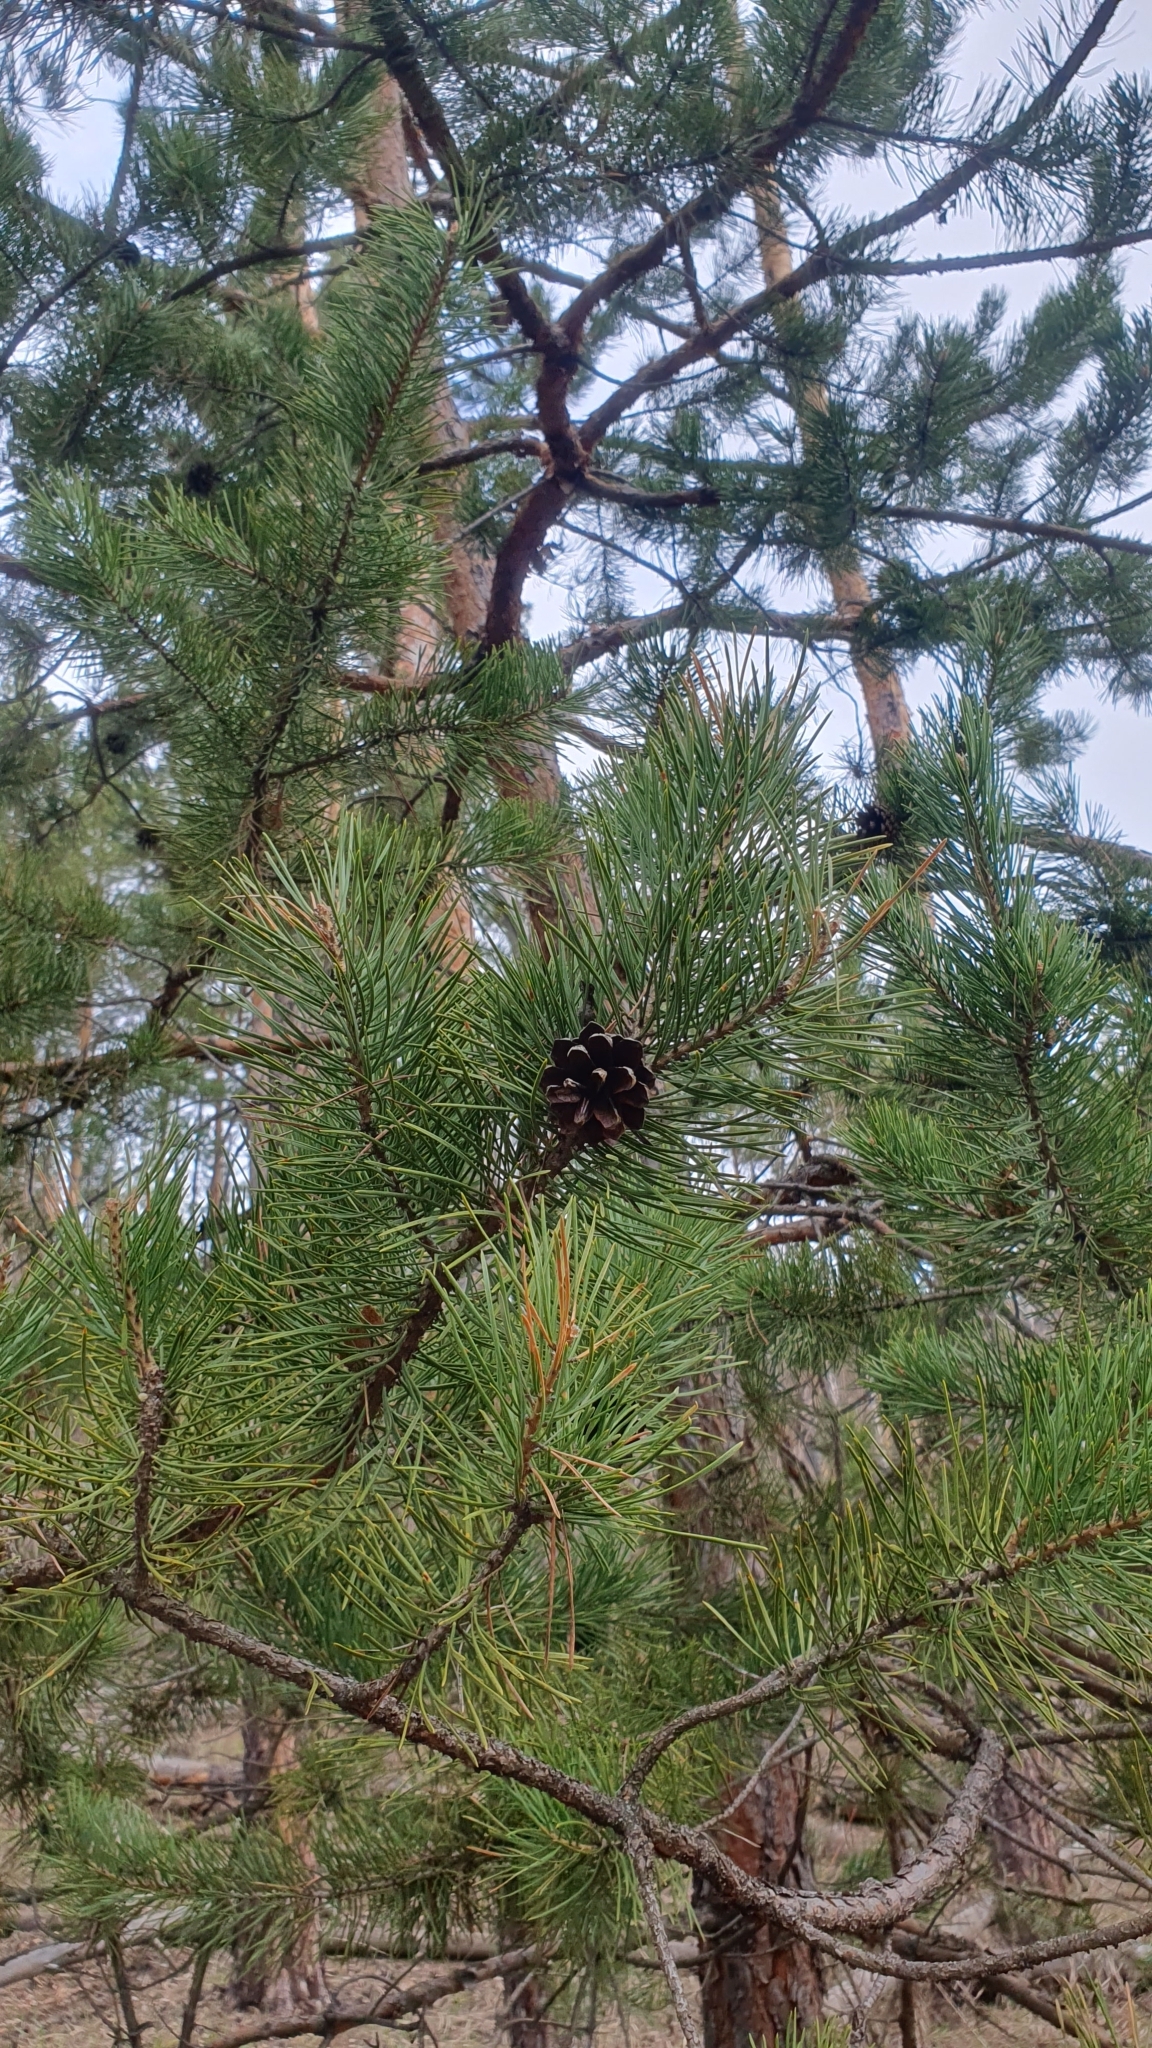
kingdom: Plantae
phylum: Tracheophyta
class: Pinopsida
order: Pinales
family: Pinaceae
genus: Pinus
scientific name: Pinus sylvestris
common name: Scots pine
